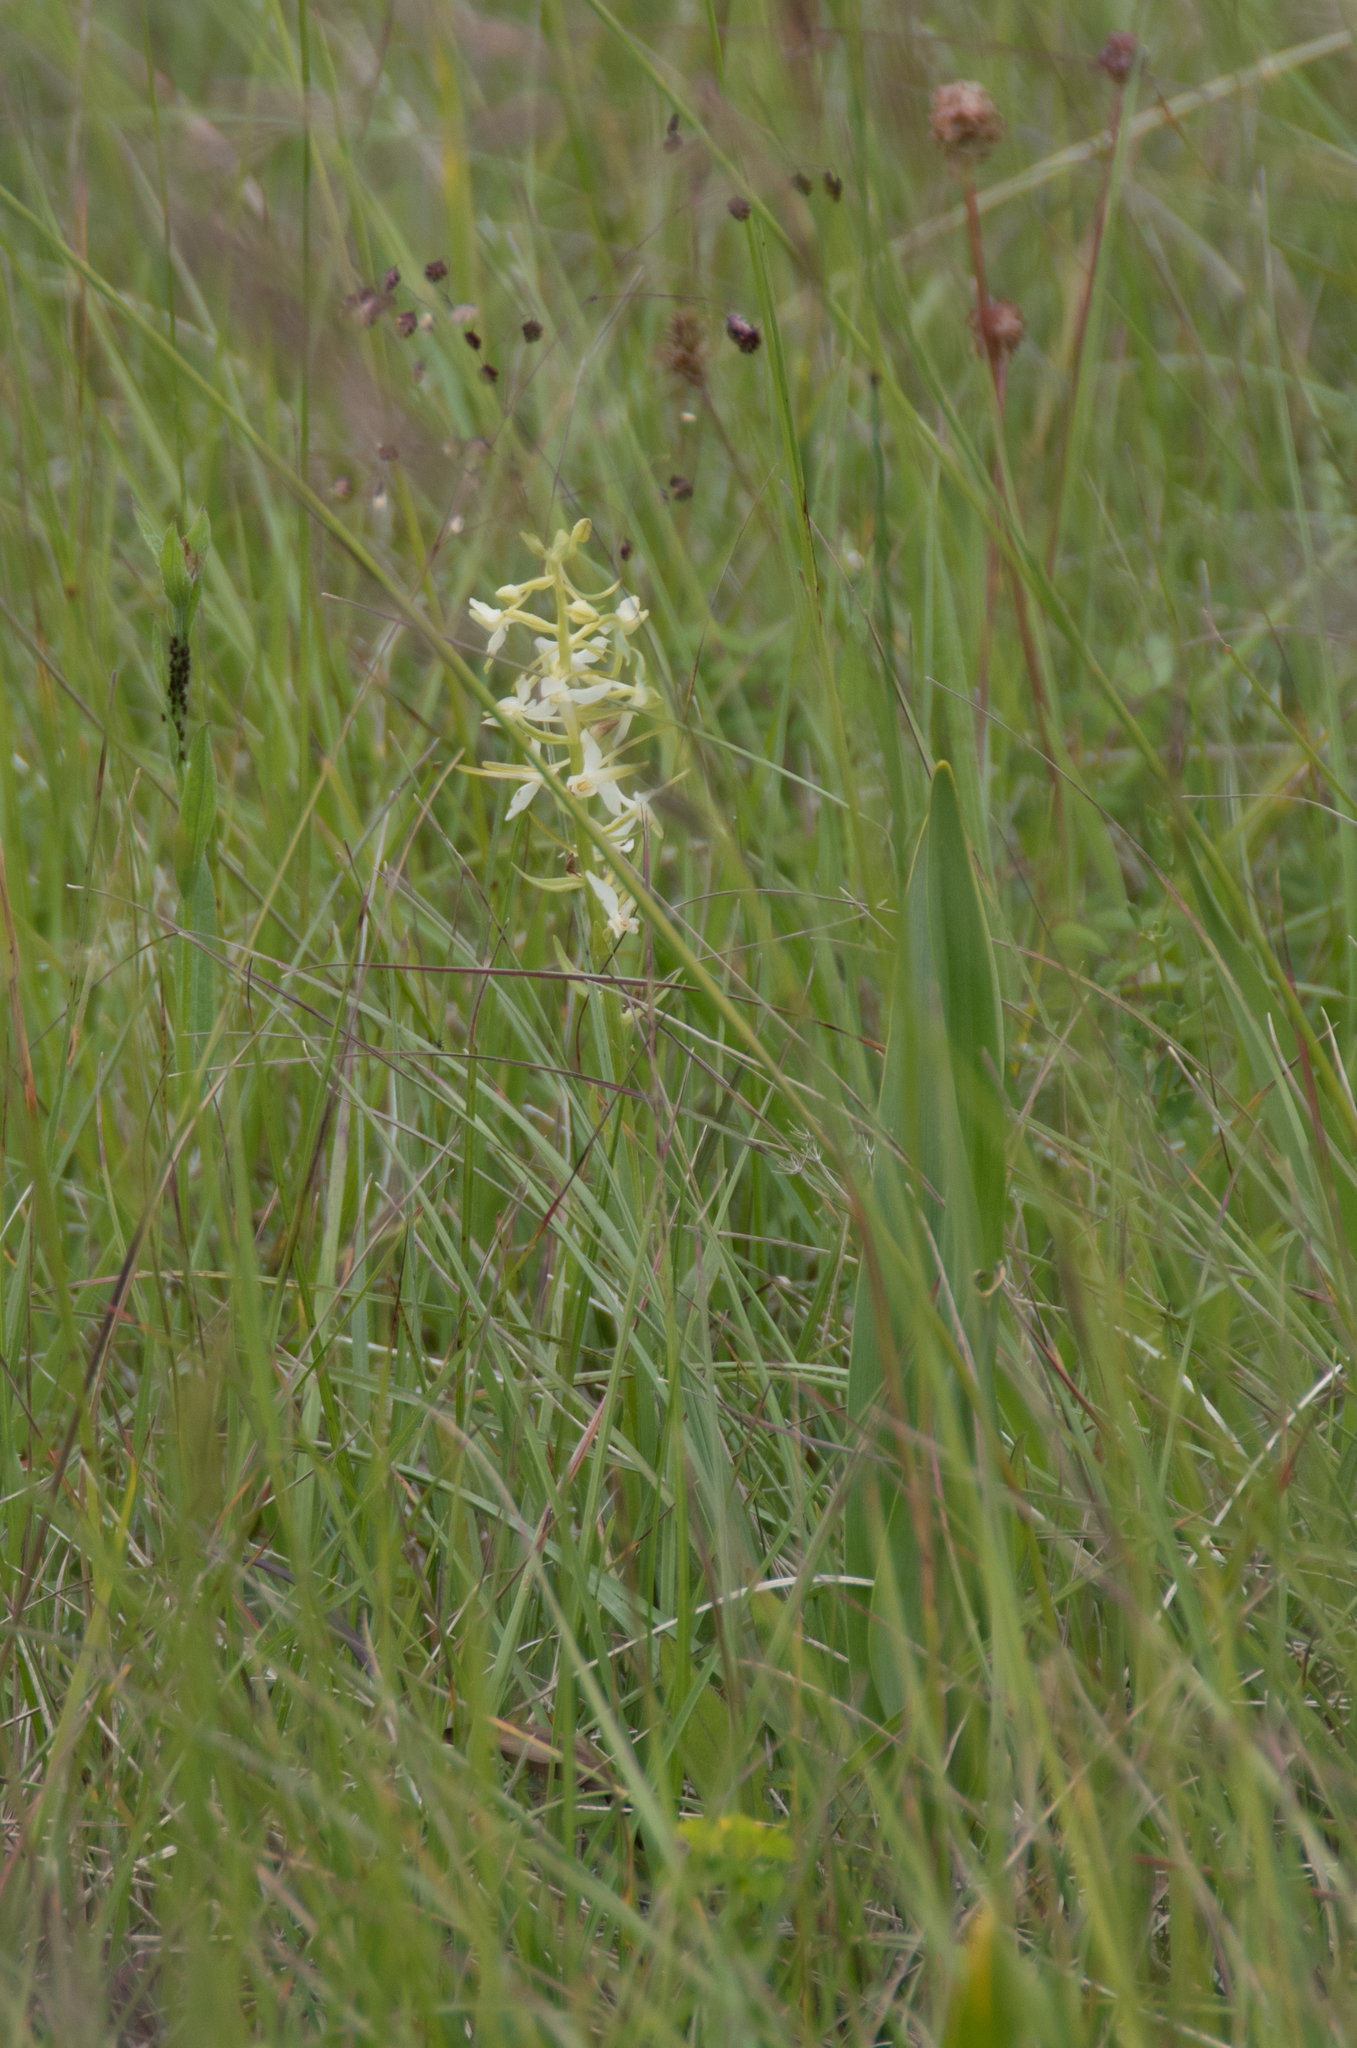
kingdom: Plantae
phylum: Tracheophyta
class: Liliopsida
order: Asparagales
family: Orchidaceae
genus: Platanthera
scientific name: Platanthera bifolia
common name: Lesser butterfly-orchid
